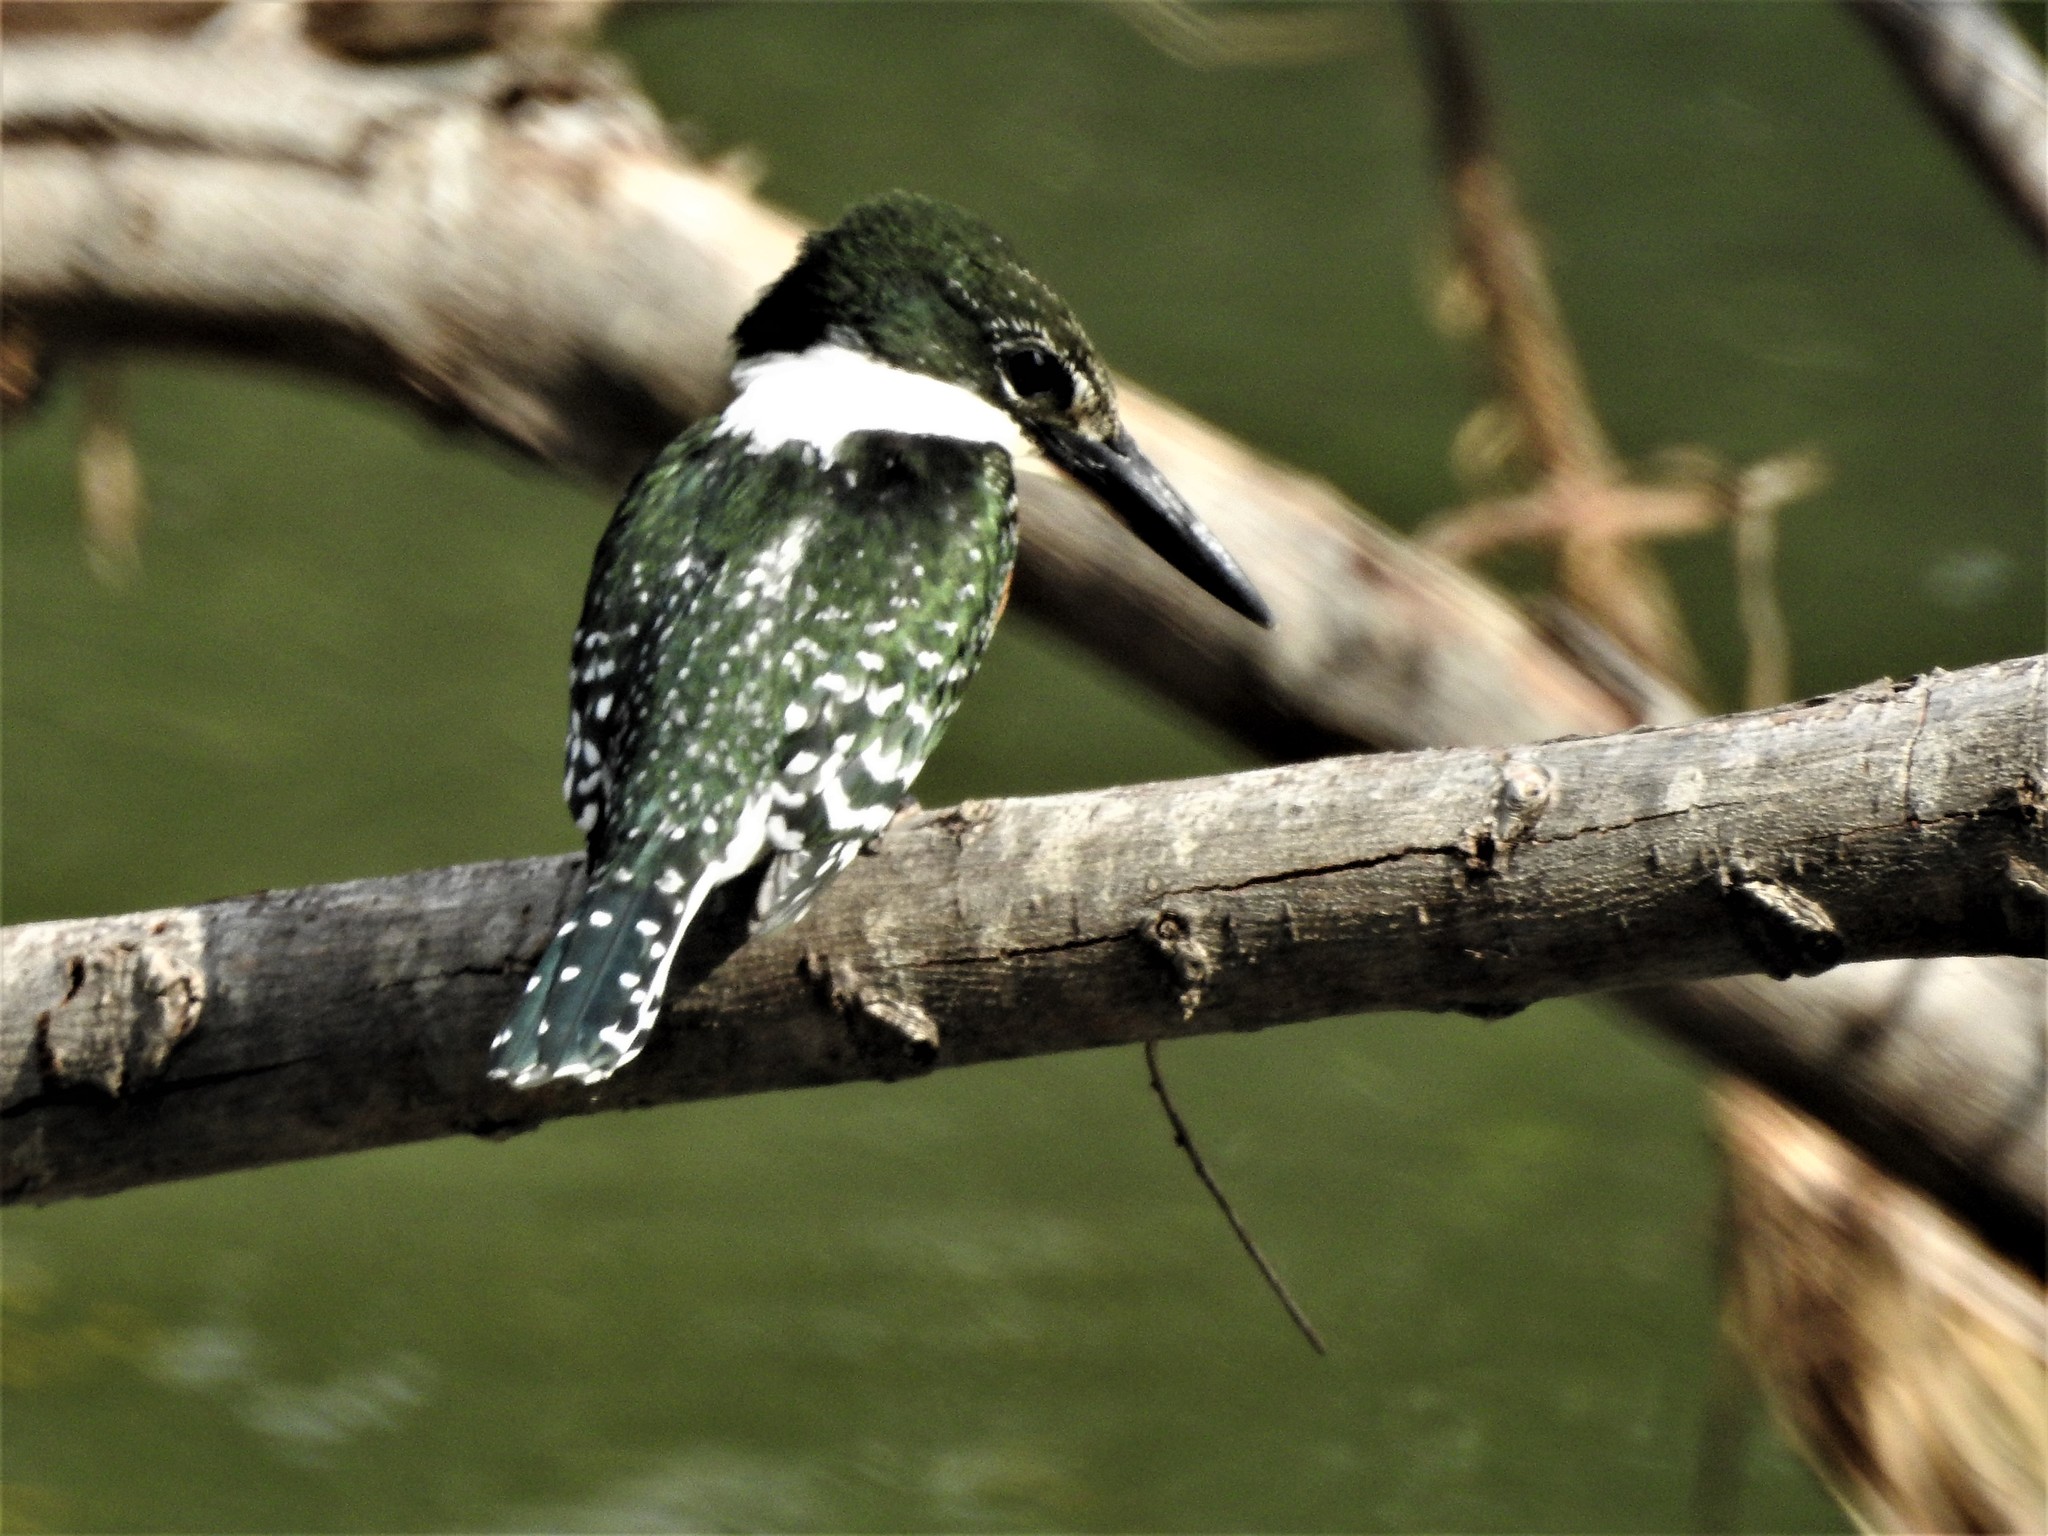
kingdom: Animalia
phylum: Chordata
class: Aves
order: Coraciiformes
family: Alcedinidae
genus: Chloroceryle
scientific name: Chloroceryle americana
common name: Green kingfisher
